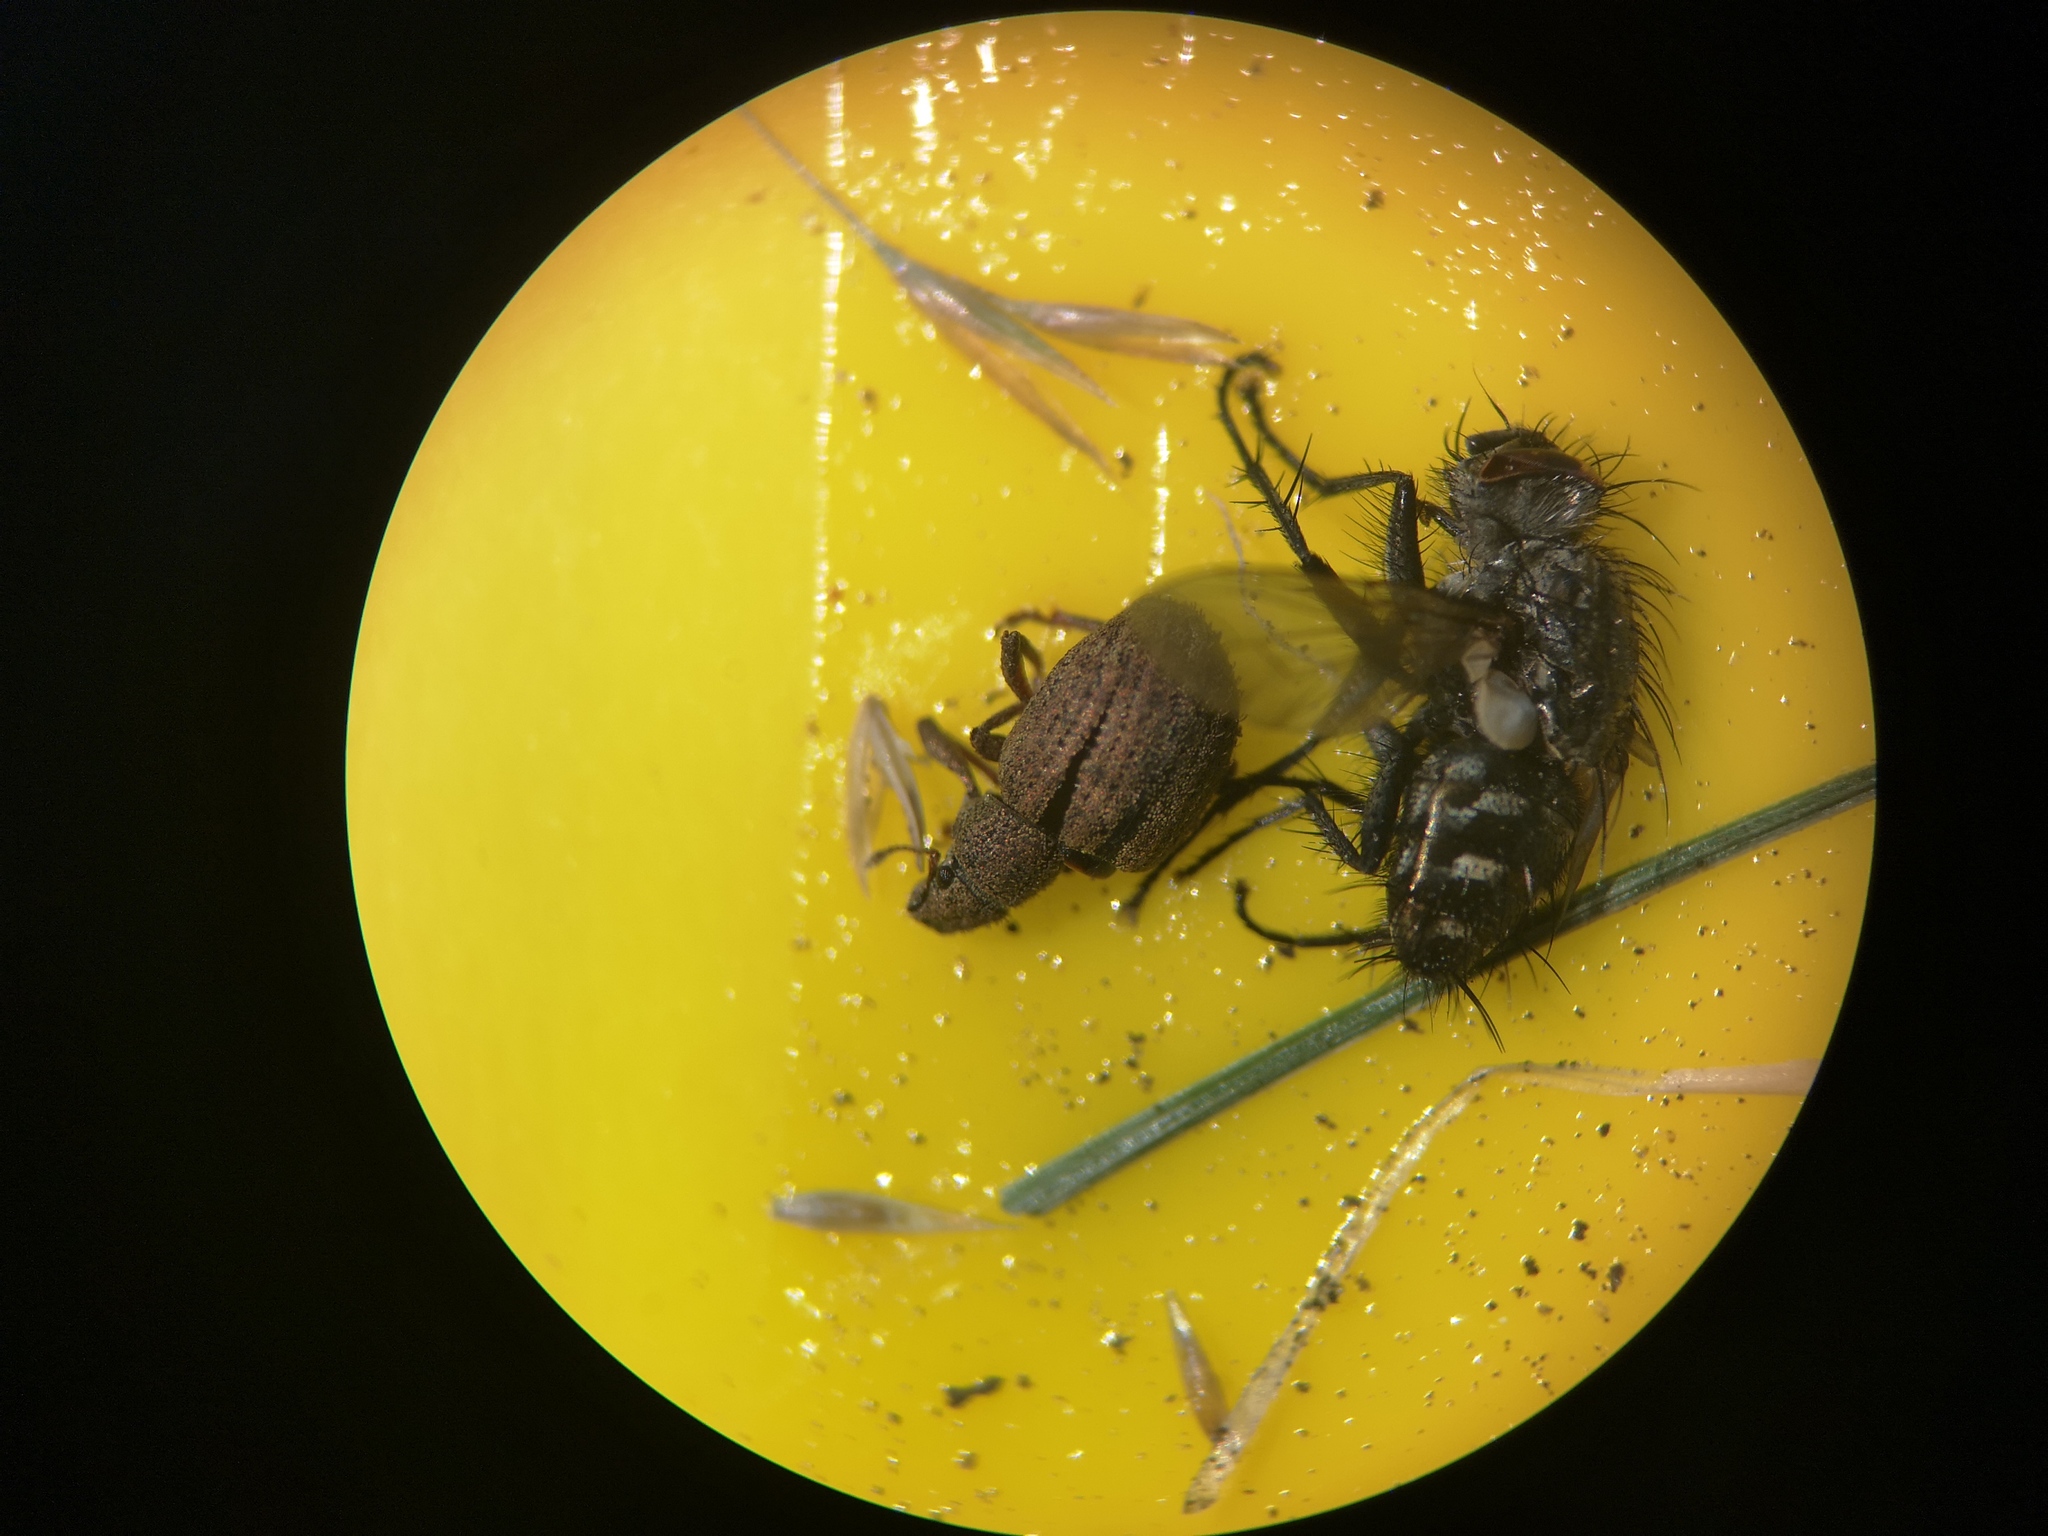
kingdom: Animalia
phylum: Arthropoda
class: Insecta
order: Coleoptera
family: Curculionidae
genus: Strophosoma
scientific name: Strophosoma melanogrammum
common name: Weevil
